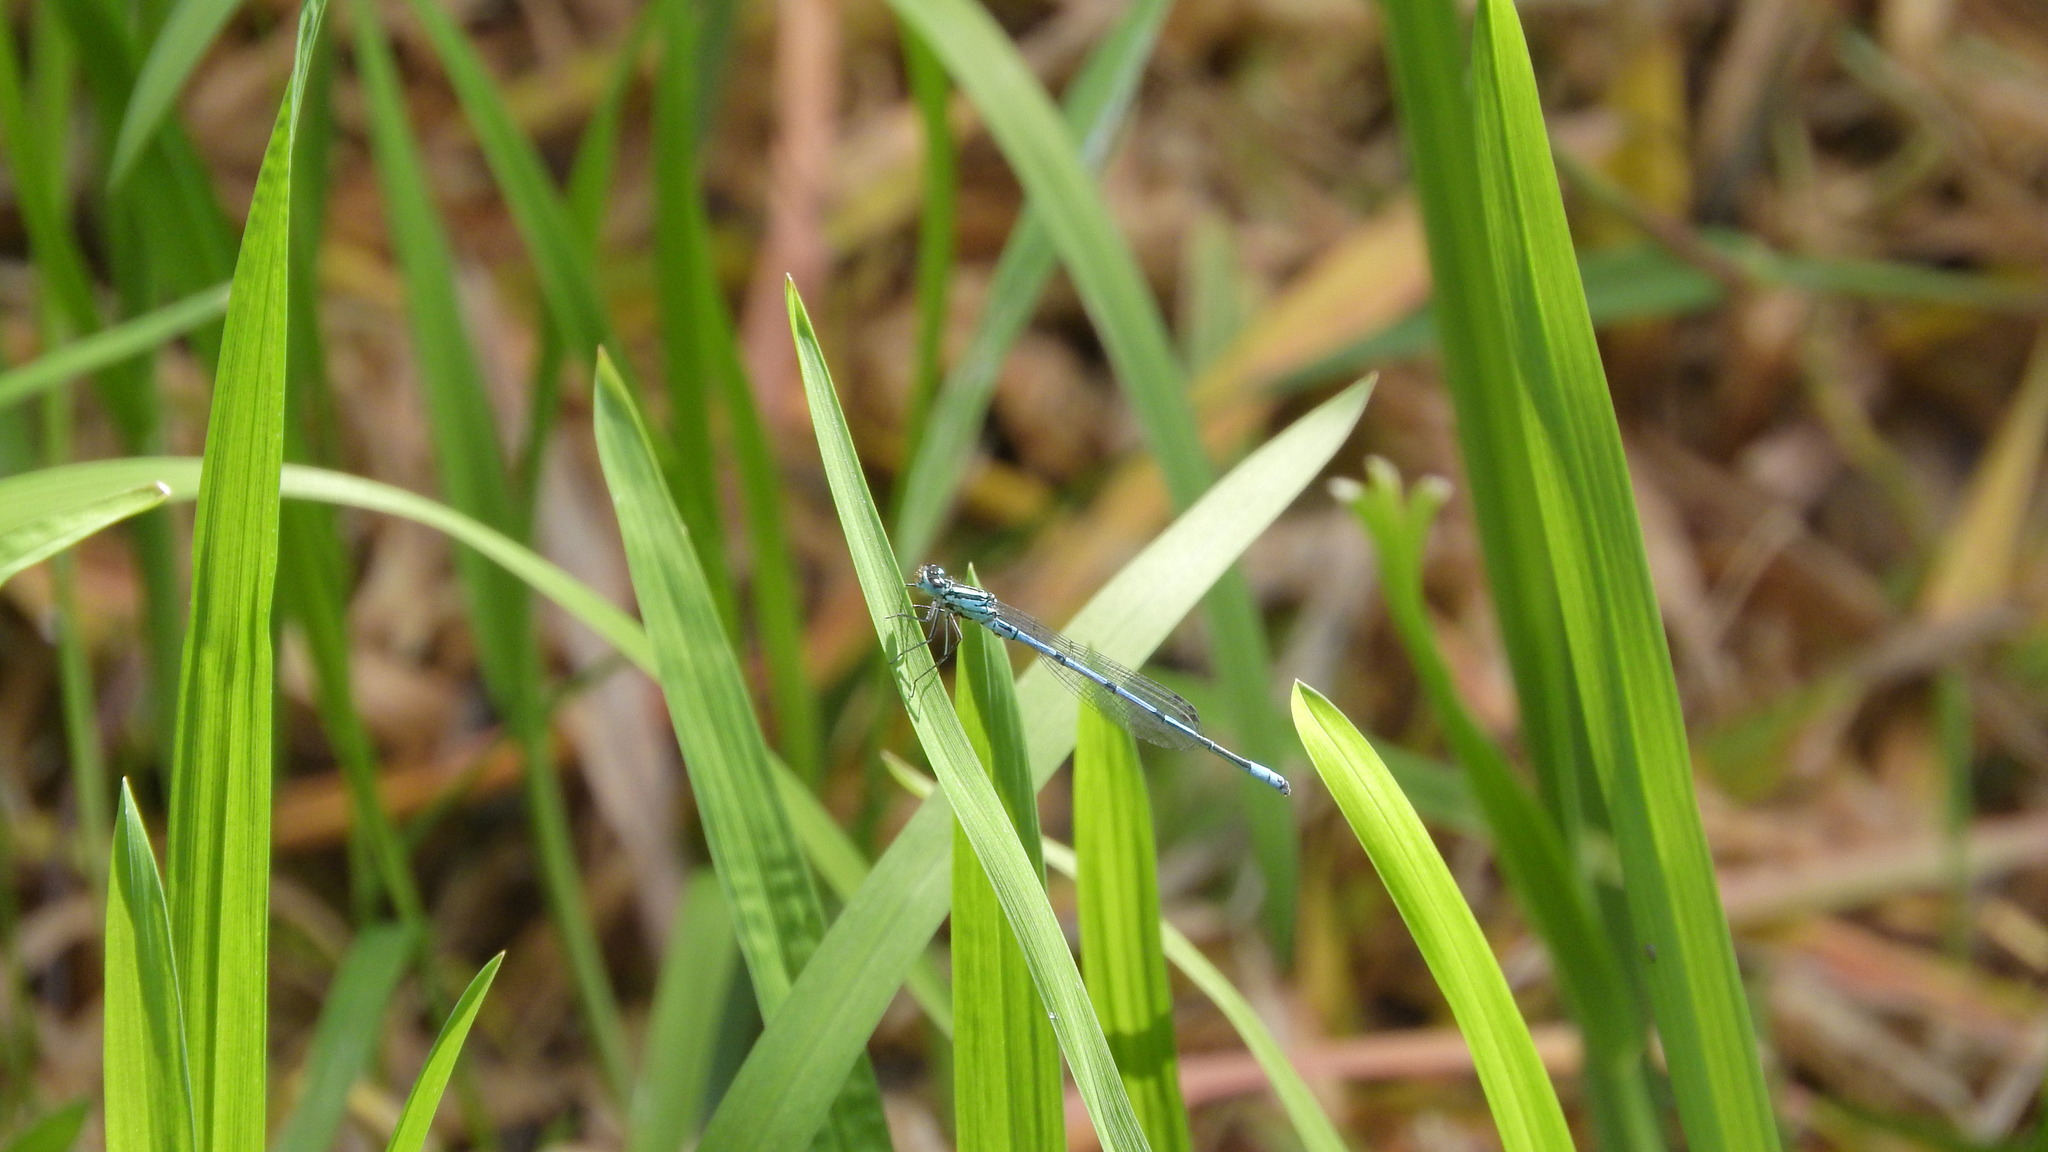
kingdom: Animalia
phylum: Arthropoda
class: Insecta
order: Odonata
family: Coenagrionidae
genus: Coenagrion
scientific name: Coenagrion puella
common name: Azure damselfly
